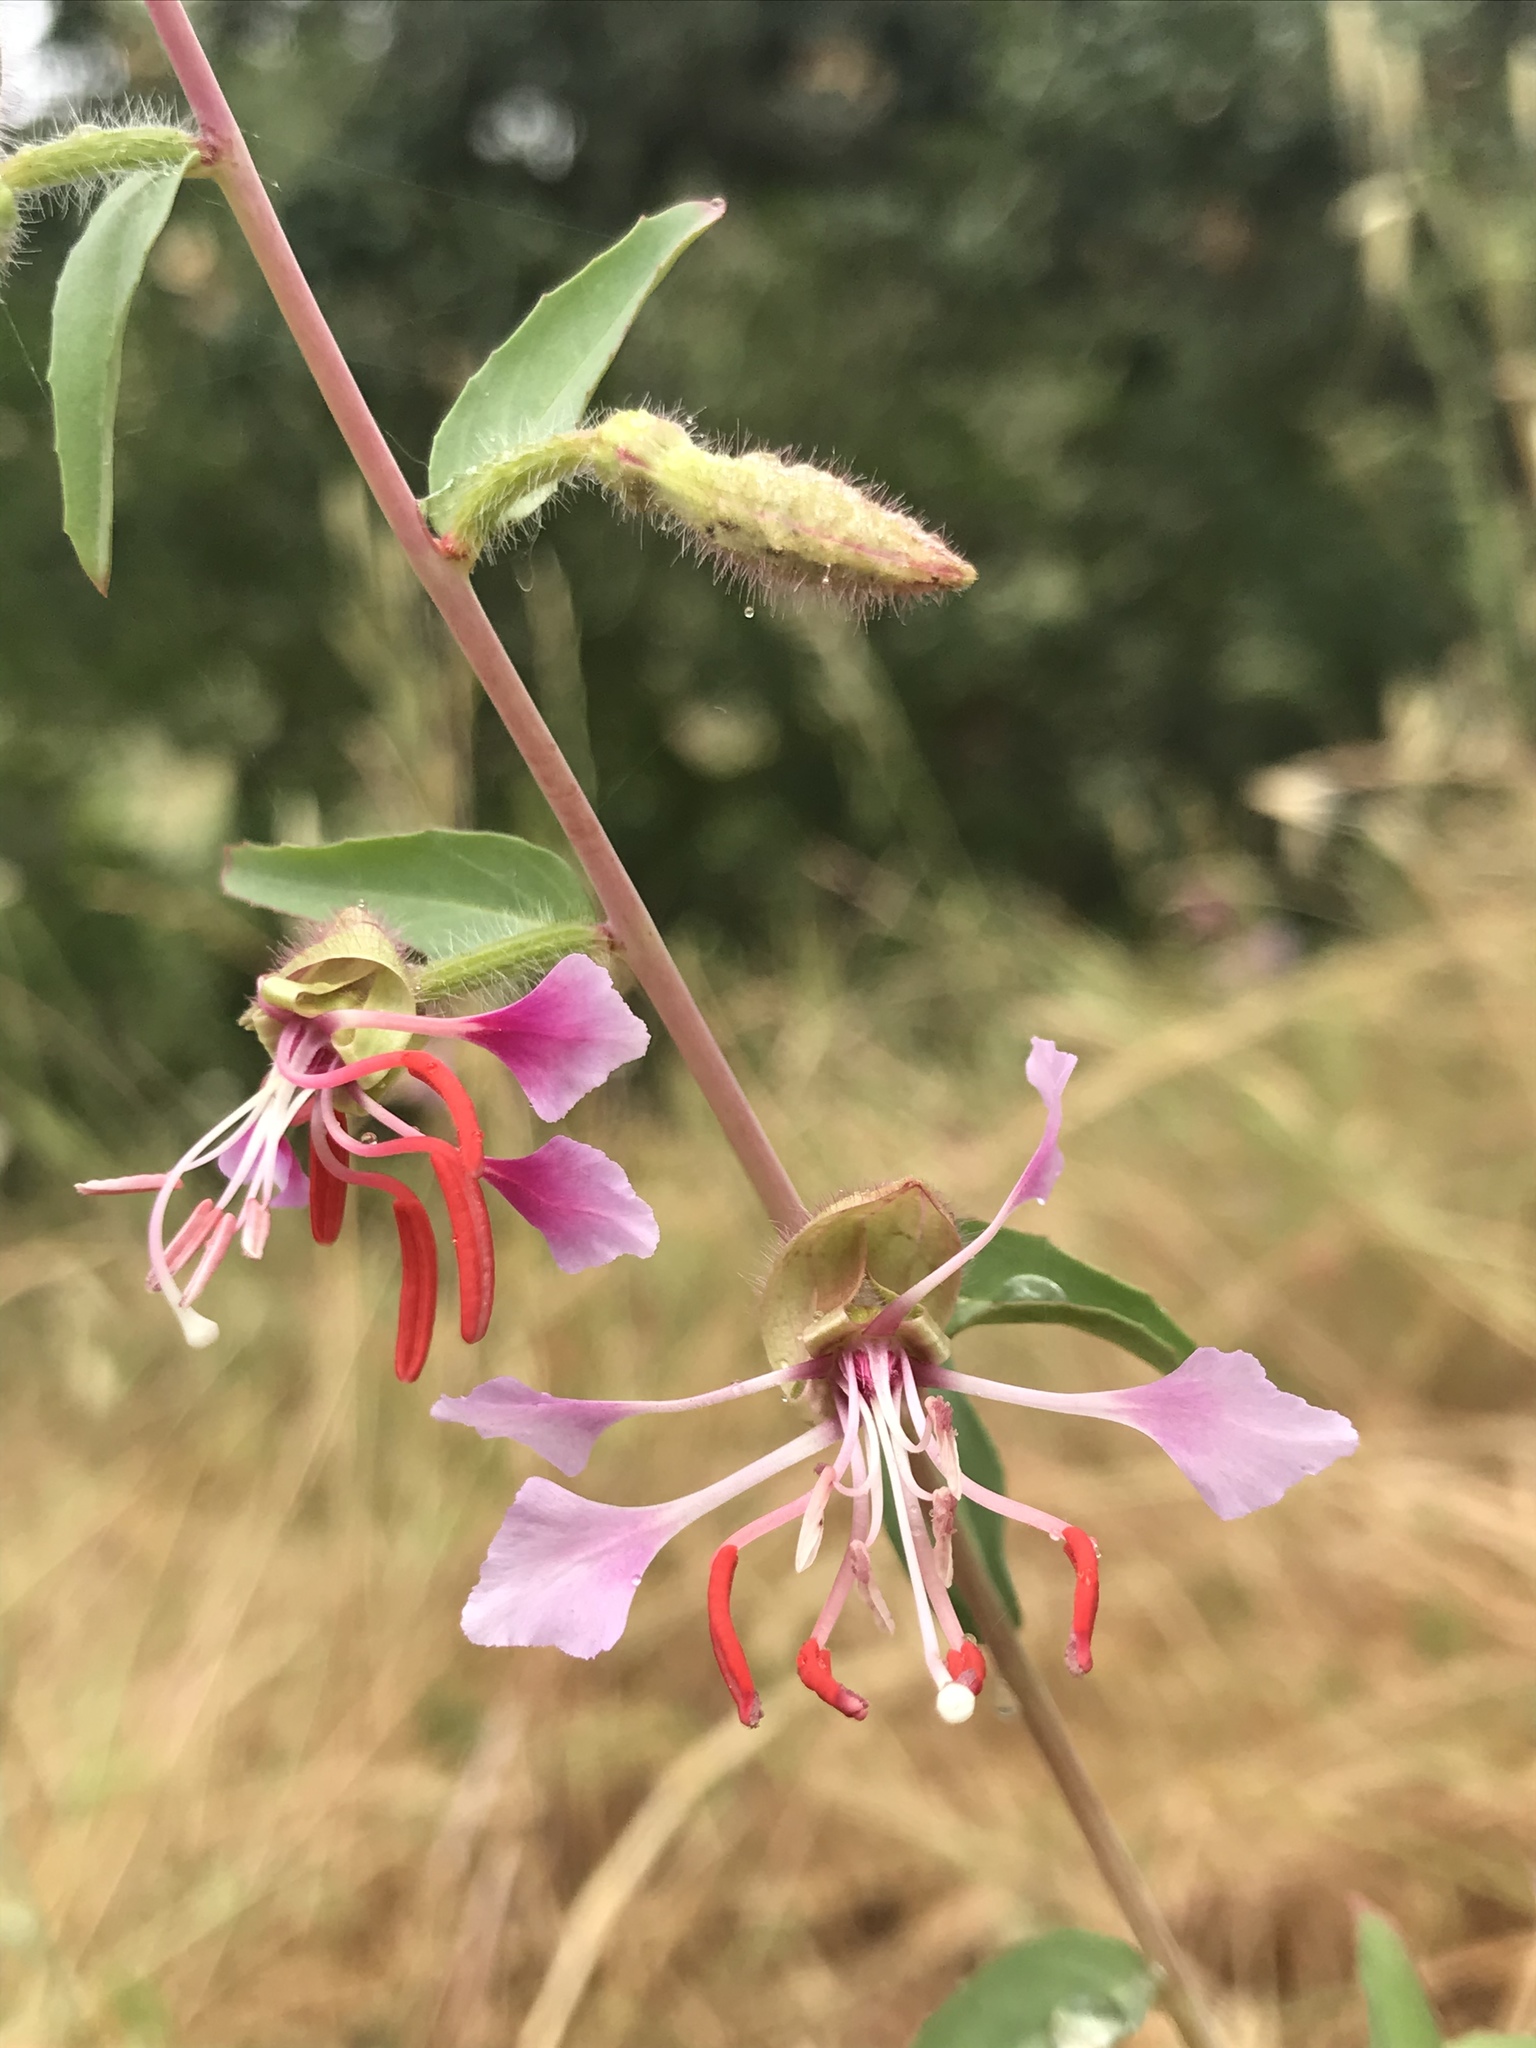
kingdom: Plantae
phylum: Tracheophyta
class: Magnoliopsida
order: Myrtales
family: Onagraceae
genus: Clarkia
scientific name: Clarkia unguiculata
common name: Clarkia
